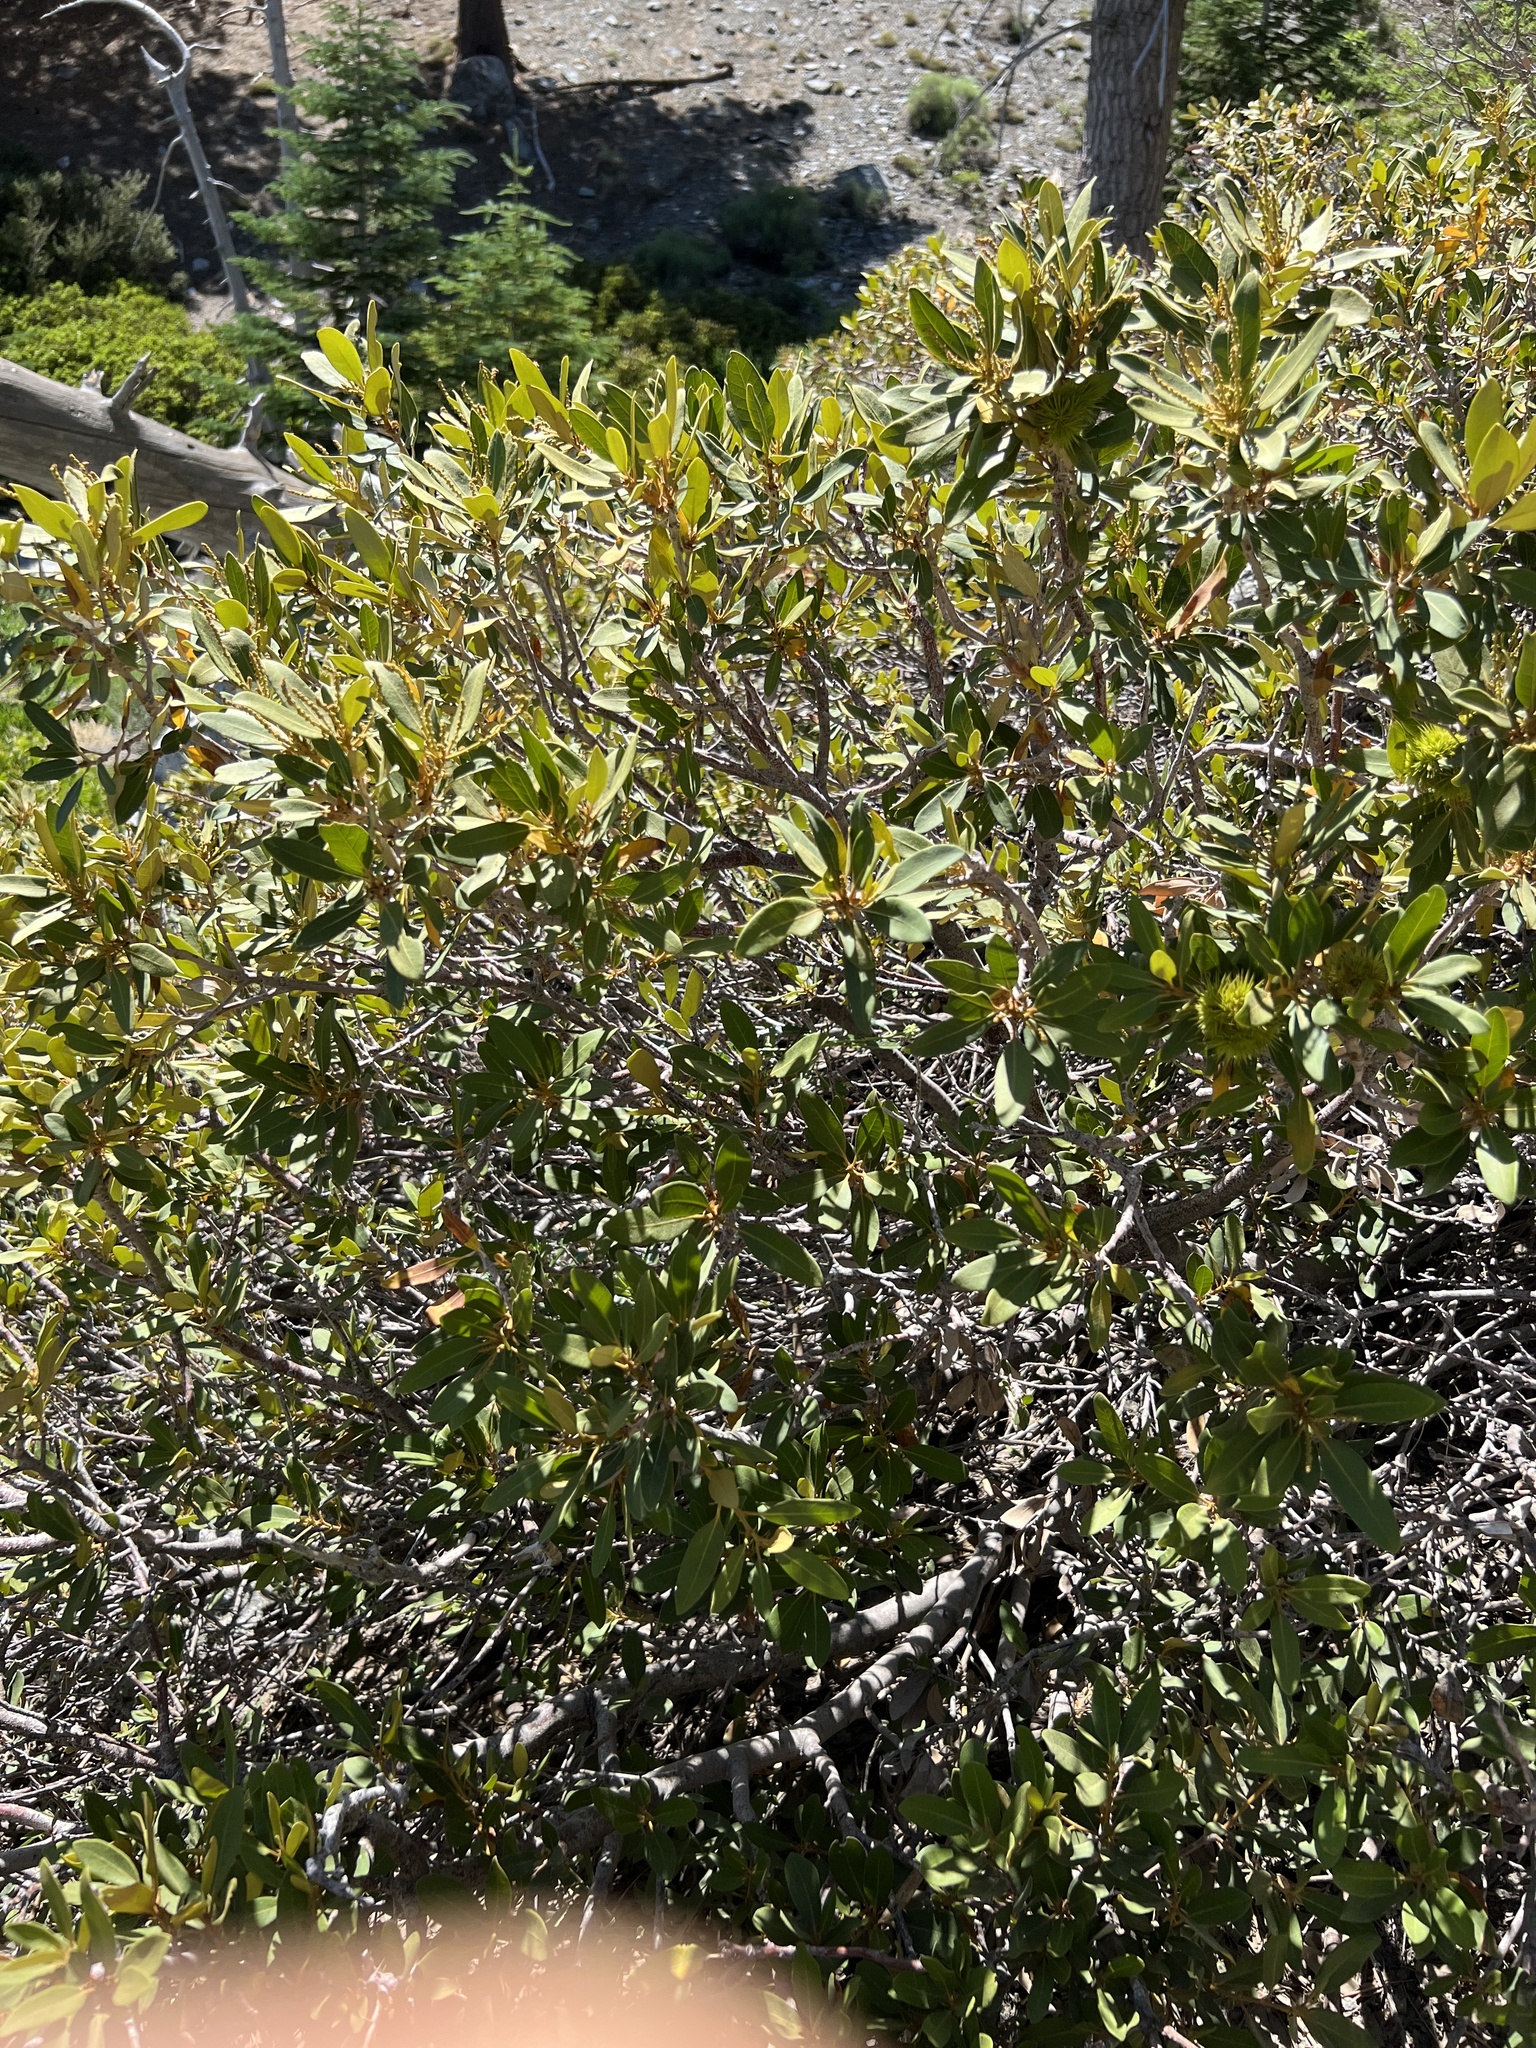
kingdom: Plantae
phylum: Tracheophyta
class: Magnoliopsida
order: Fagales
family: Fagaceae
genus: Chrysolepis
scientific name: Chrysolepis sempervirens
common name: Bush chinquapin
